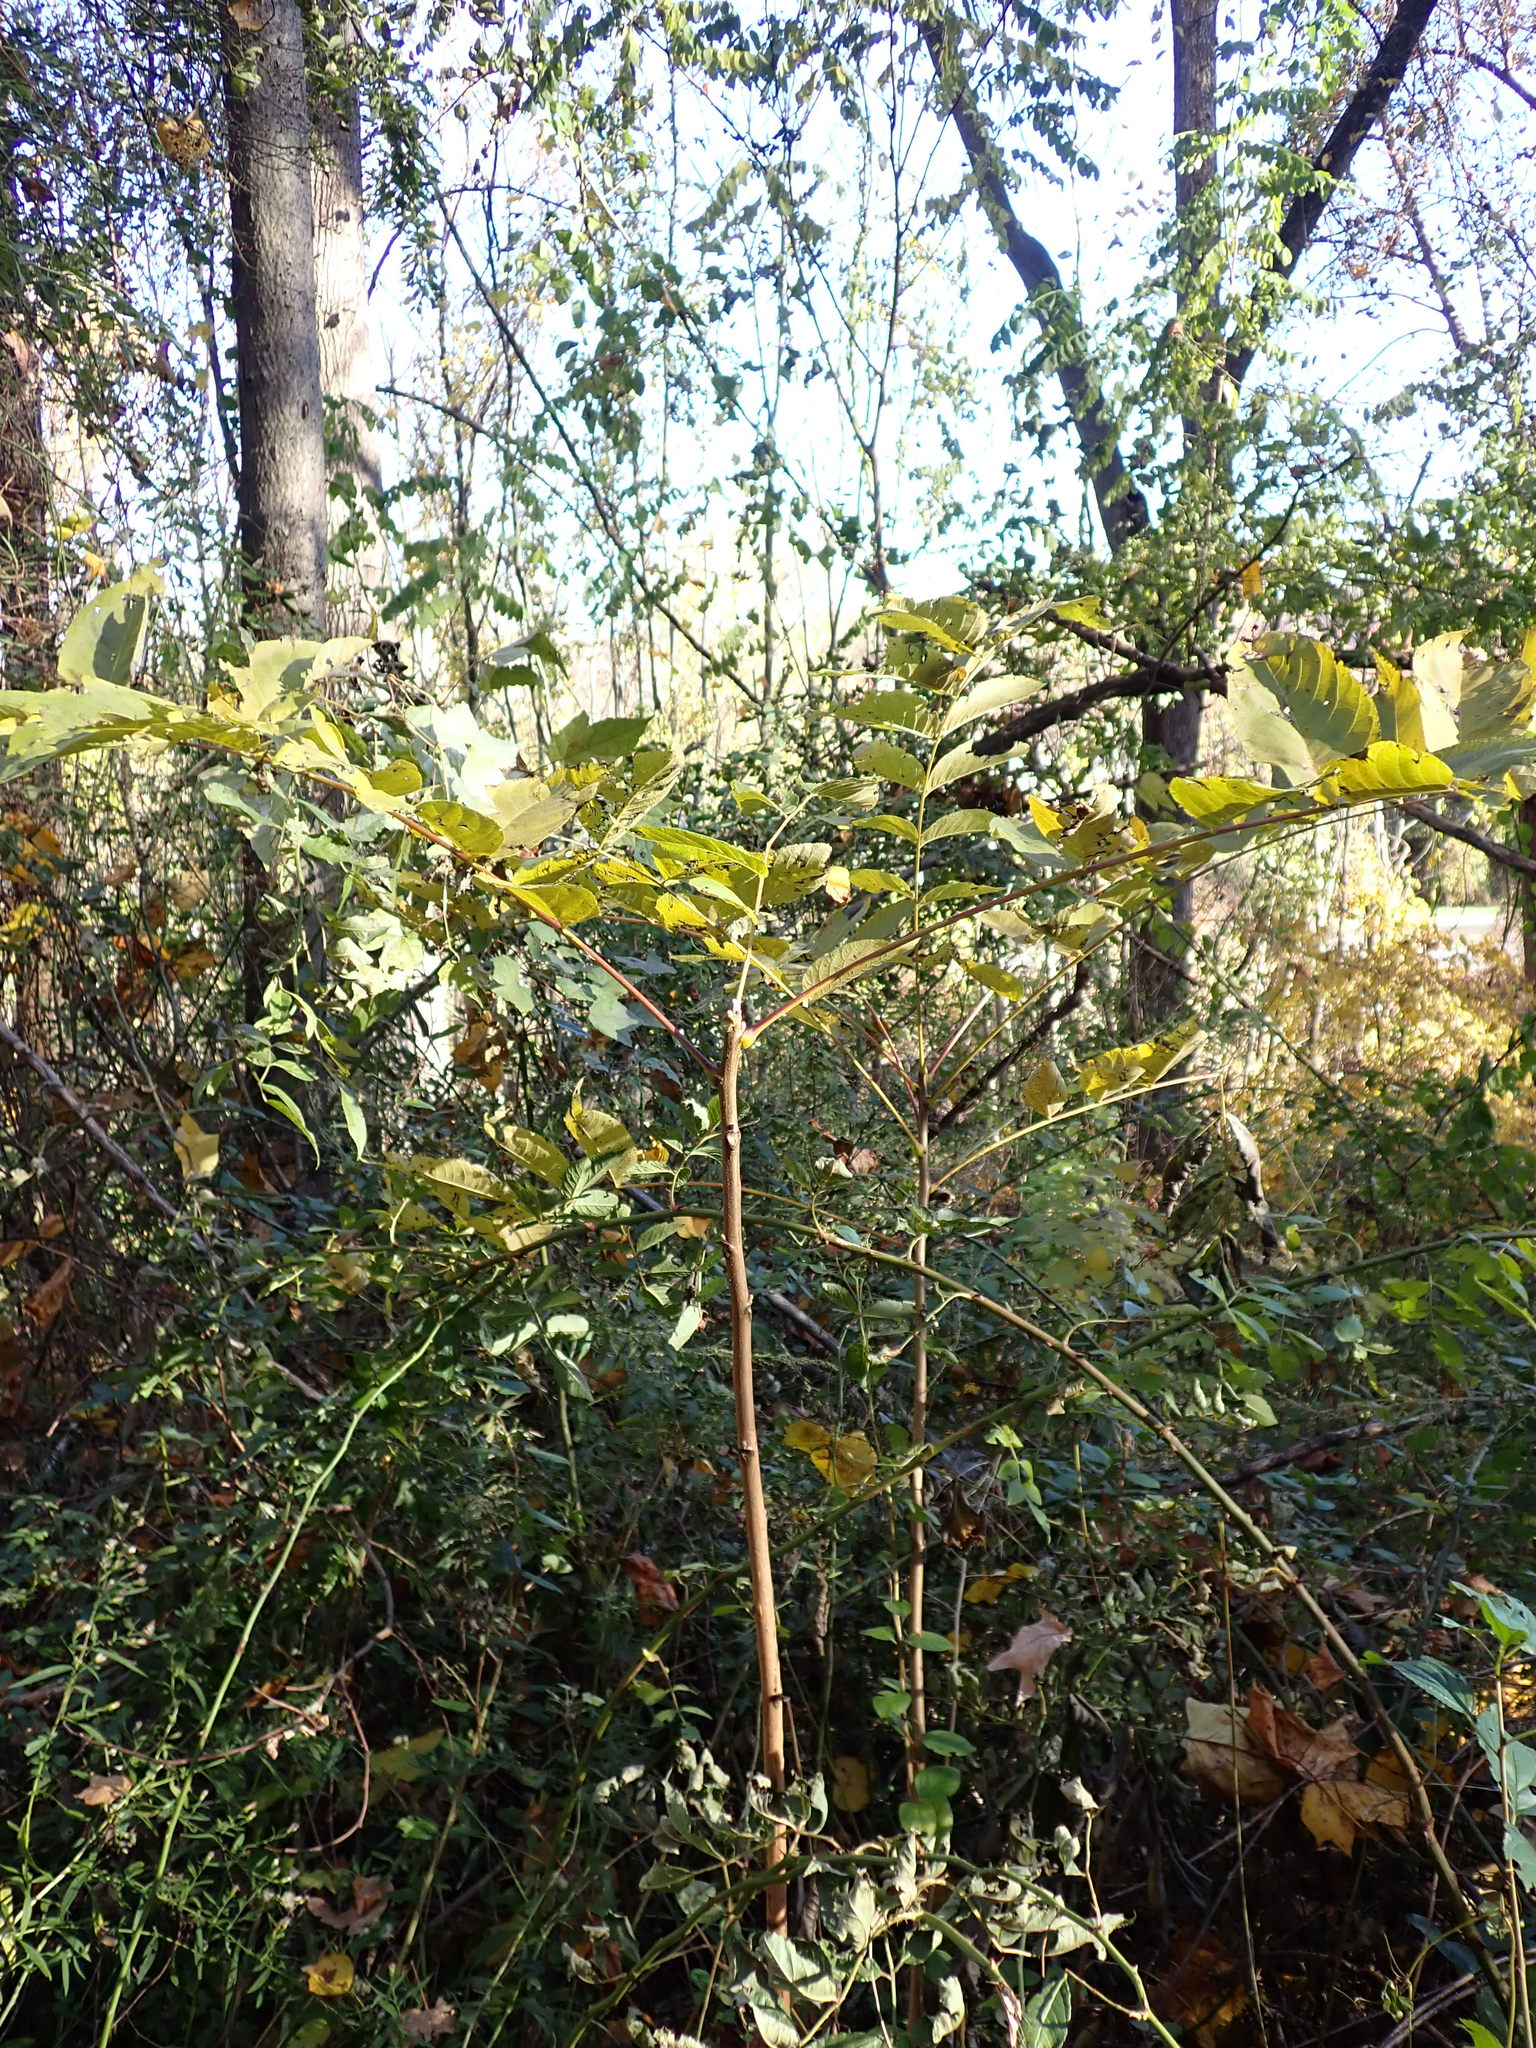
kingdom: Plantae
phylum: Tracheophyta
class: Magnoliopsida
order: Fagales
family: Juglandaceae
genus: Juglans
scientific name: Juglans nigra
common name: Black walnut
